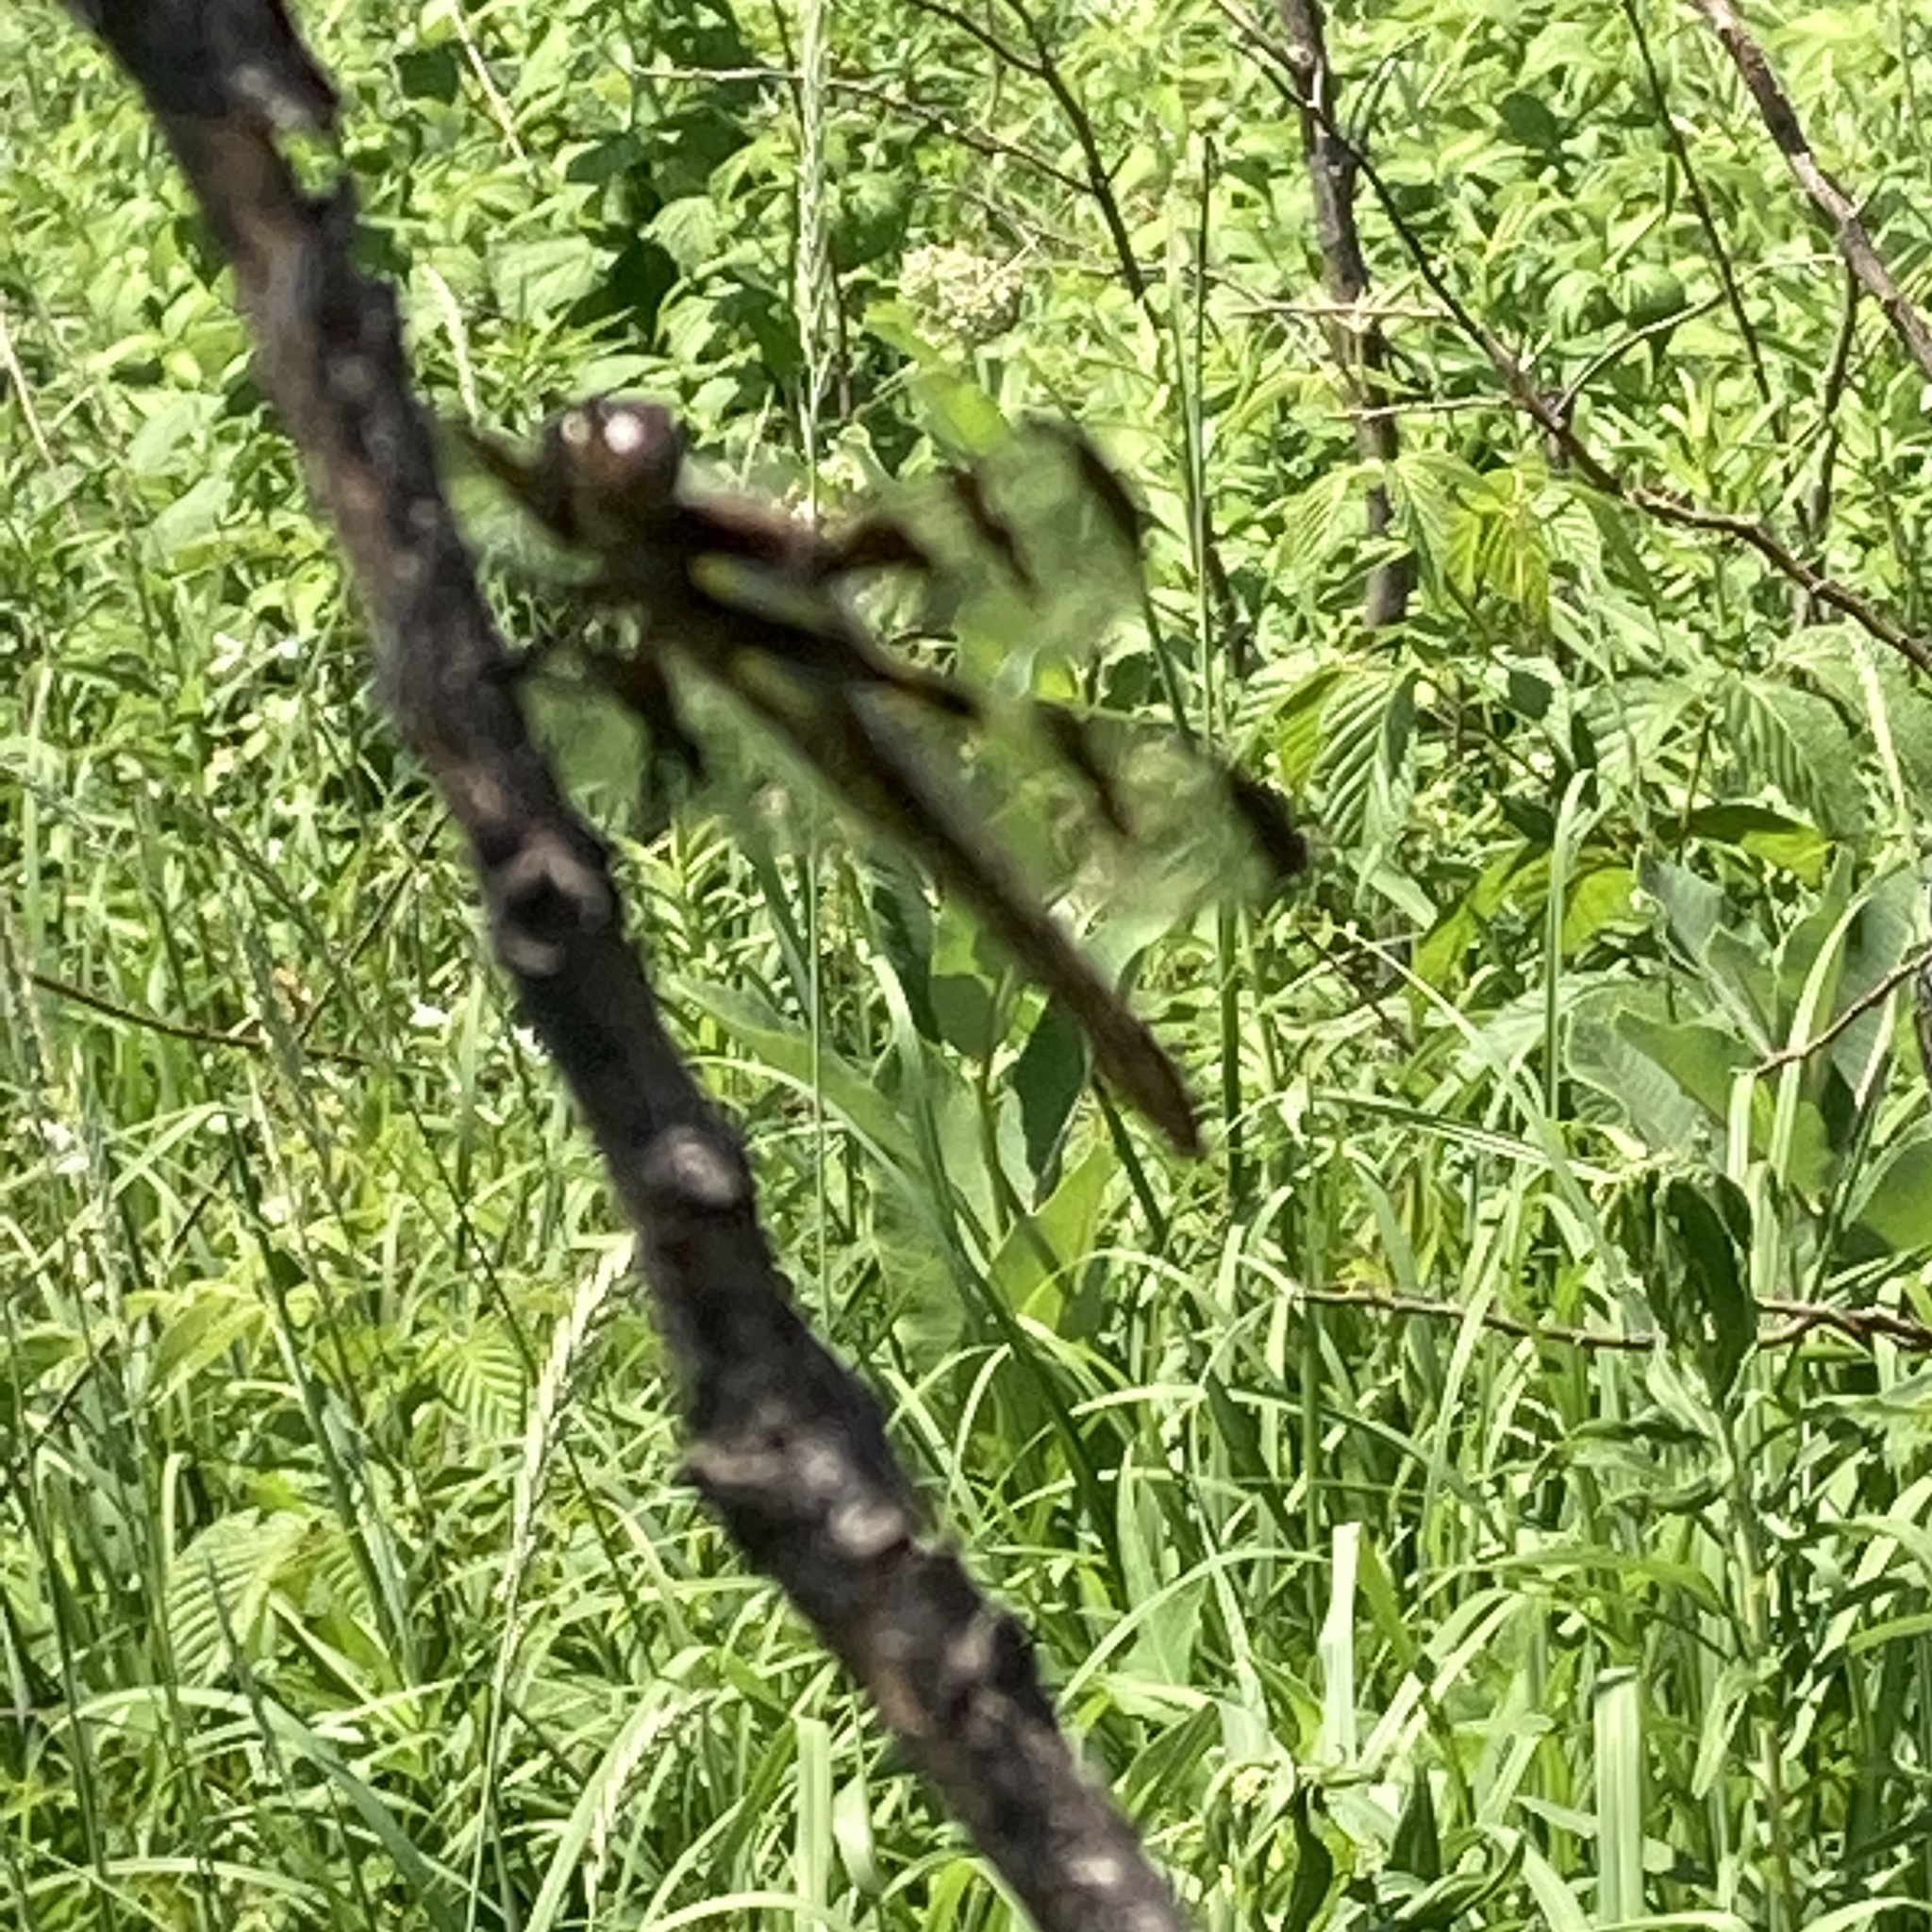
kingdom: Animalia
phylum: Arthropoda
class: Insecta
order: Odonata
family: Libellulidae
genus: Libellula
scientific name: Libellula pulchella
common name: Twelve-spotted skimmer
